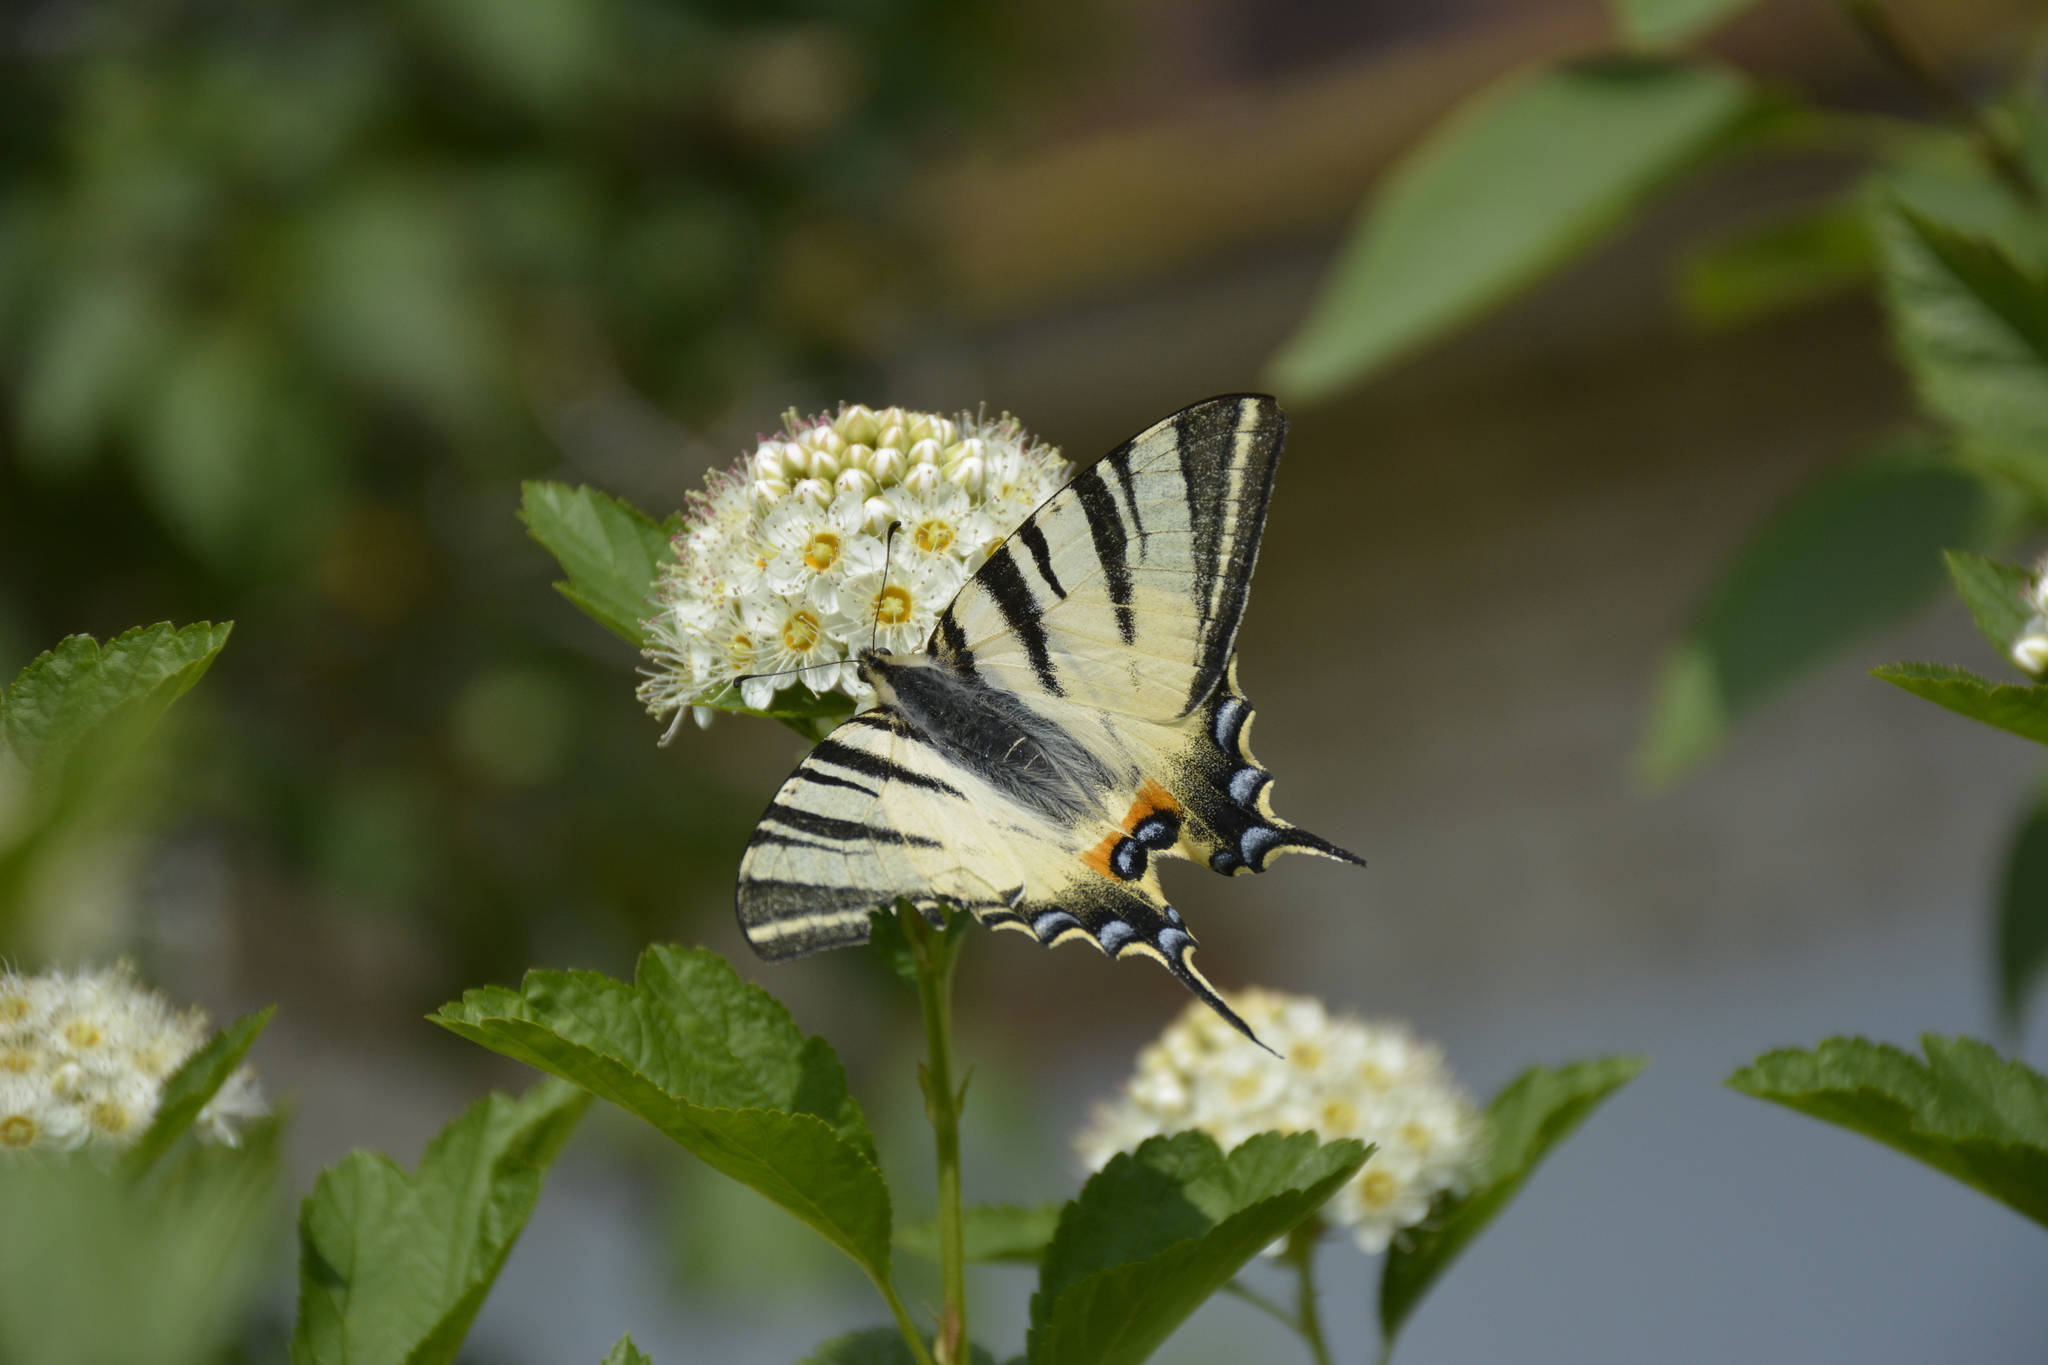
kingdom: Animalia
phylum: Arthropoda
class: Insecta
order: Lepidoptera
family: Papilionidae
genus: Iphiclides
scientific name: Iphiclides podalirius
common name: Scarce swallowtail
